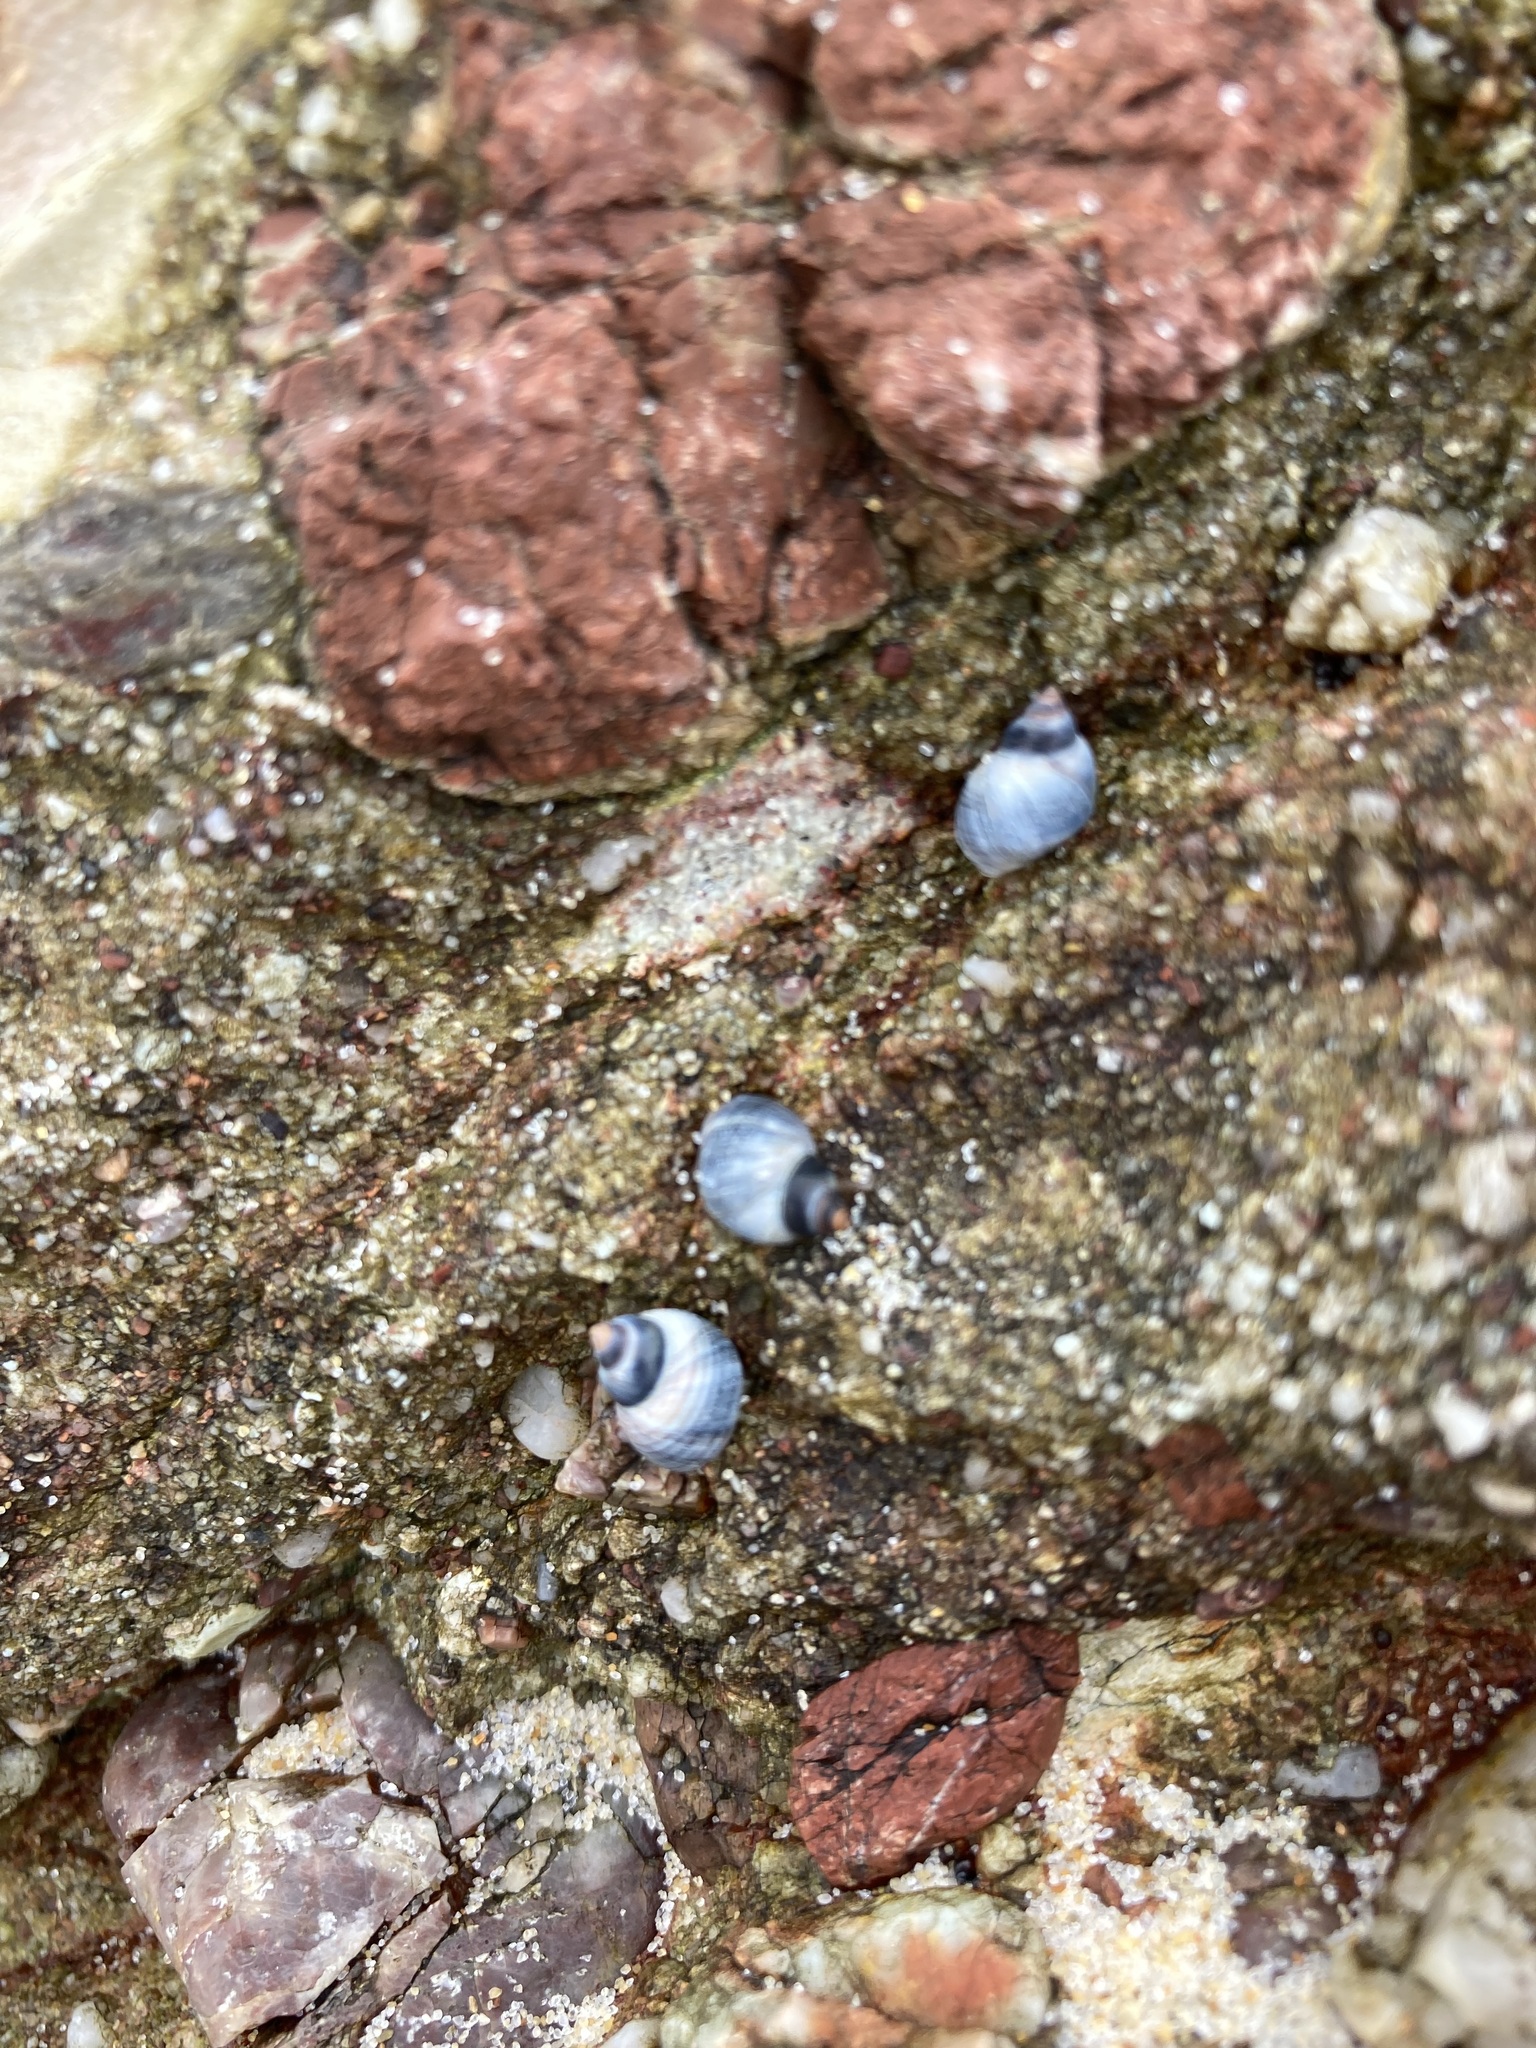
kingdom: Animalia
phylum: Mollusca
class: Gastropoda
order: Littorinimorpha
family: Littorinidae
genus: Austrolittorina
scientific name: Austrolittorina unifasciata
